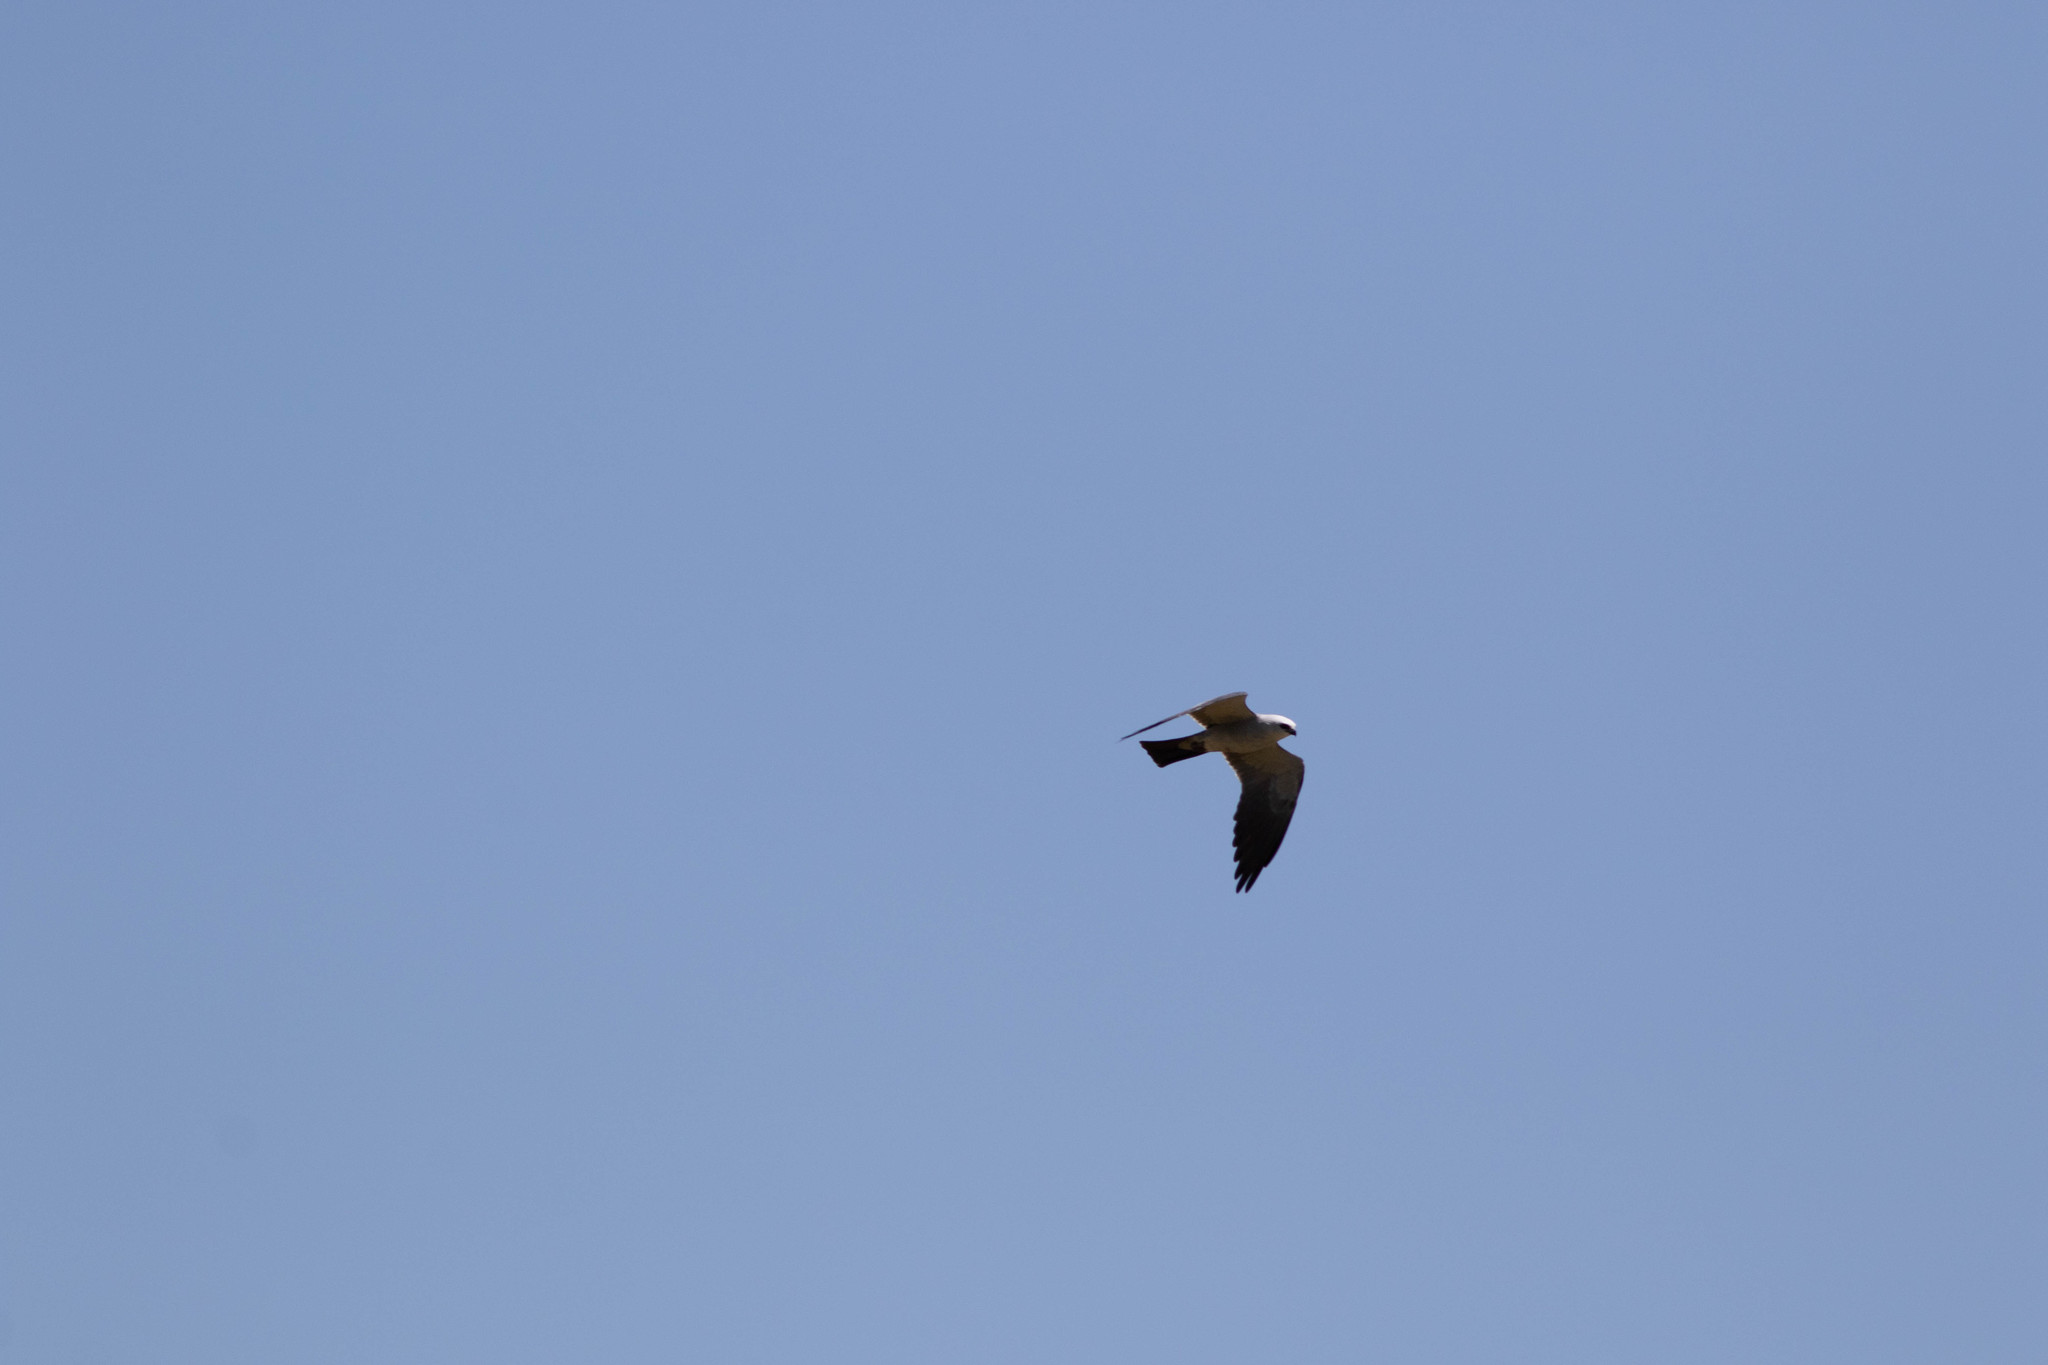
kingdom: Animalia
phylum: Chordata
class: Aves
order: Accipitriformes
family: Accipitridae
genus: Ictinia
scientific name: Ictinia mississippiensis
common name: Mississippi kite
